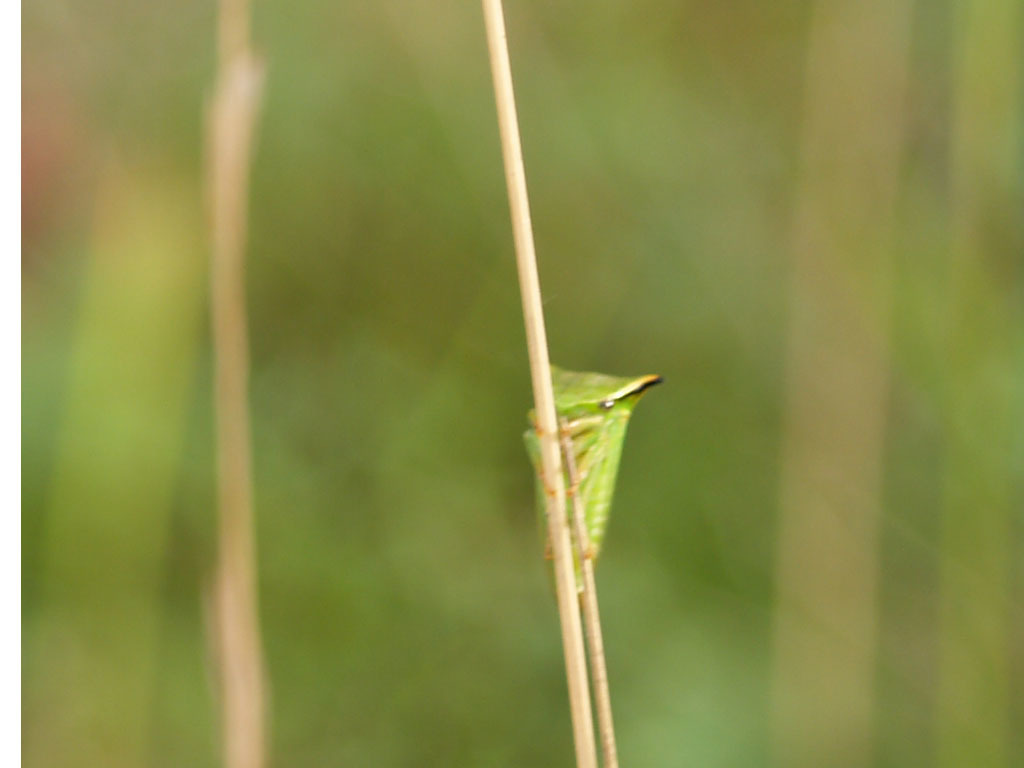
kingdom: Animalia
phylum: Arthropoda
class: Insecta
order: Hemiptera
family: Membracidae
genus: Stictocephala
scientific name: Stictocephala bisonia
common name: American buffalo treehopper
